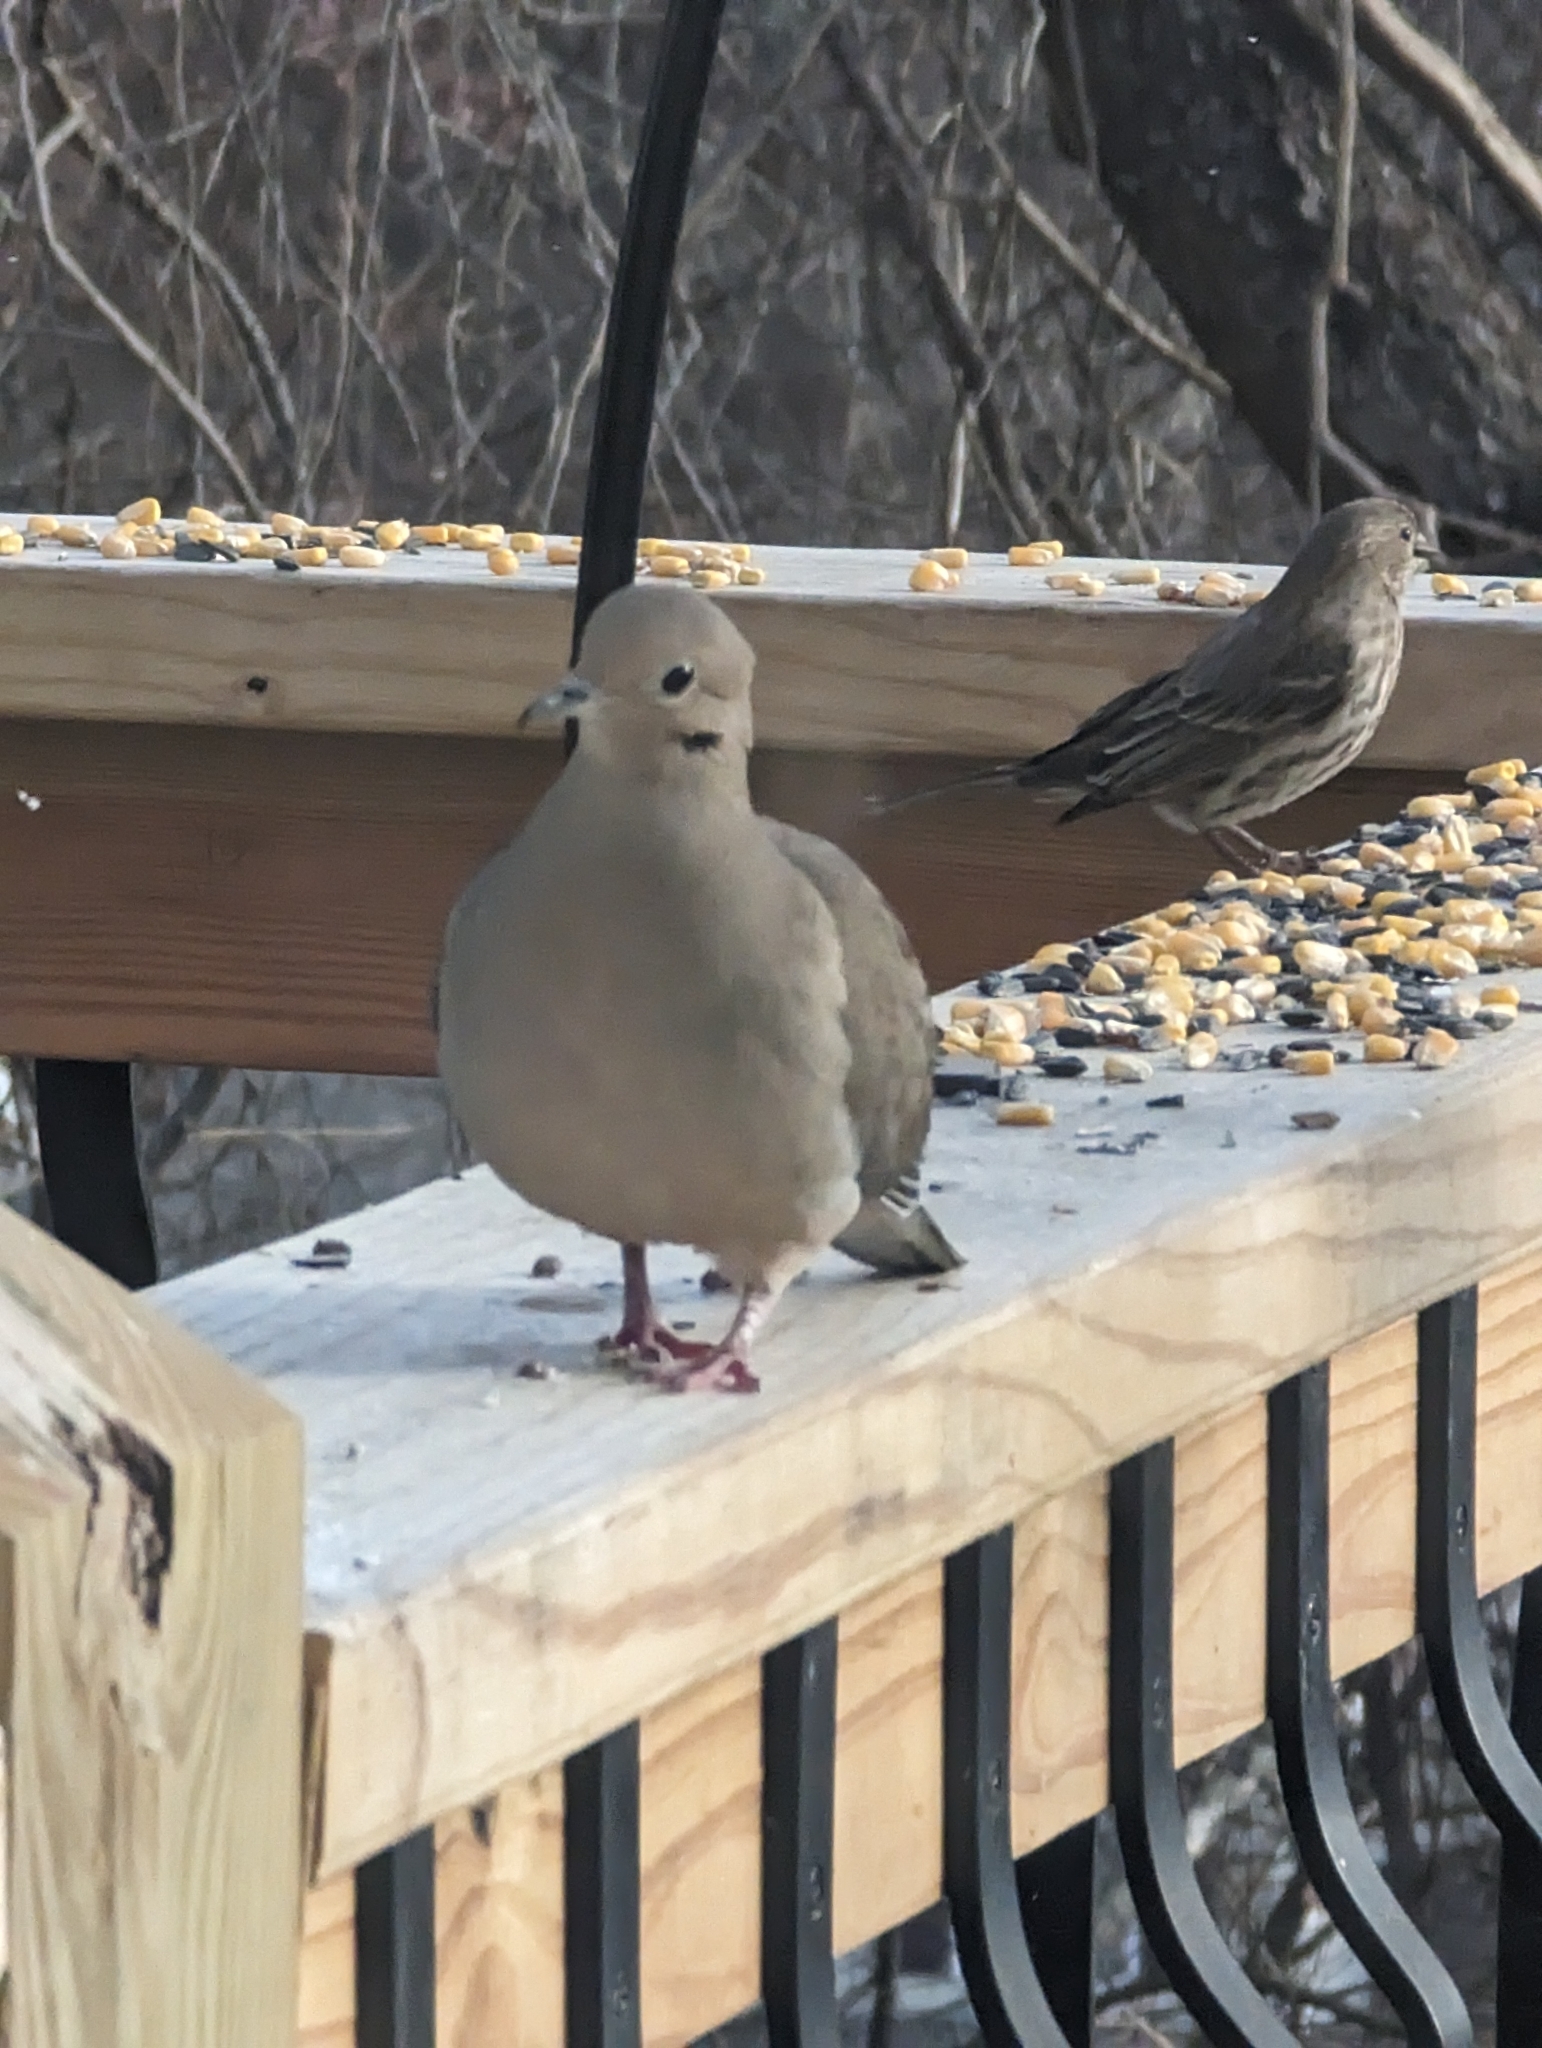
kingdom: Animalia
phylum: Chordata
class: Aves
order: Columbiformes
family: Columbidae
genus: Zenaida
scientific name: Zenaida macroura
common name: Mourning dove
